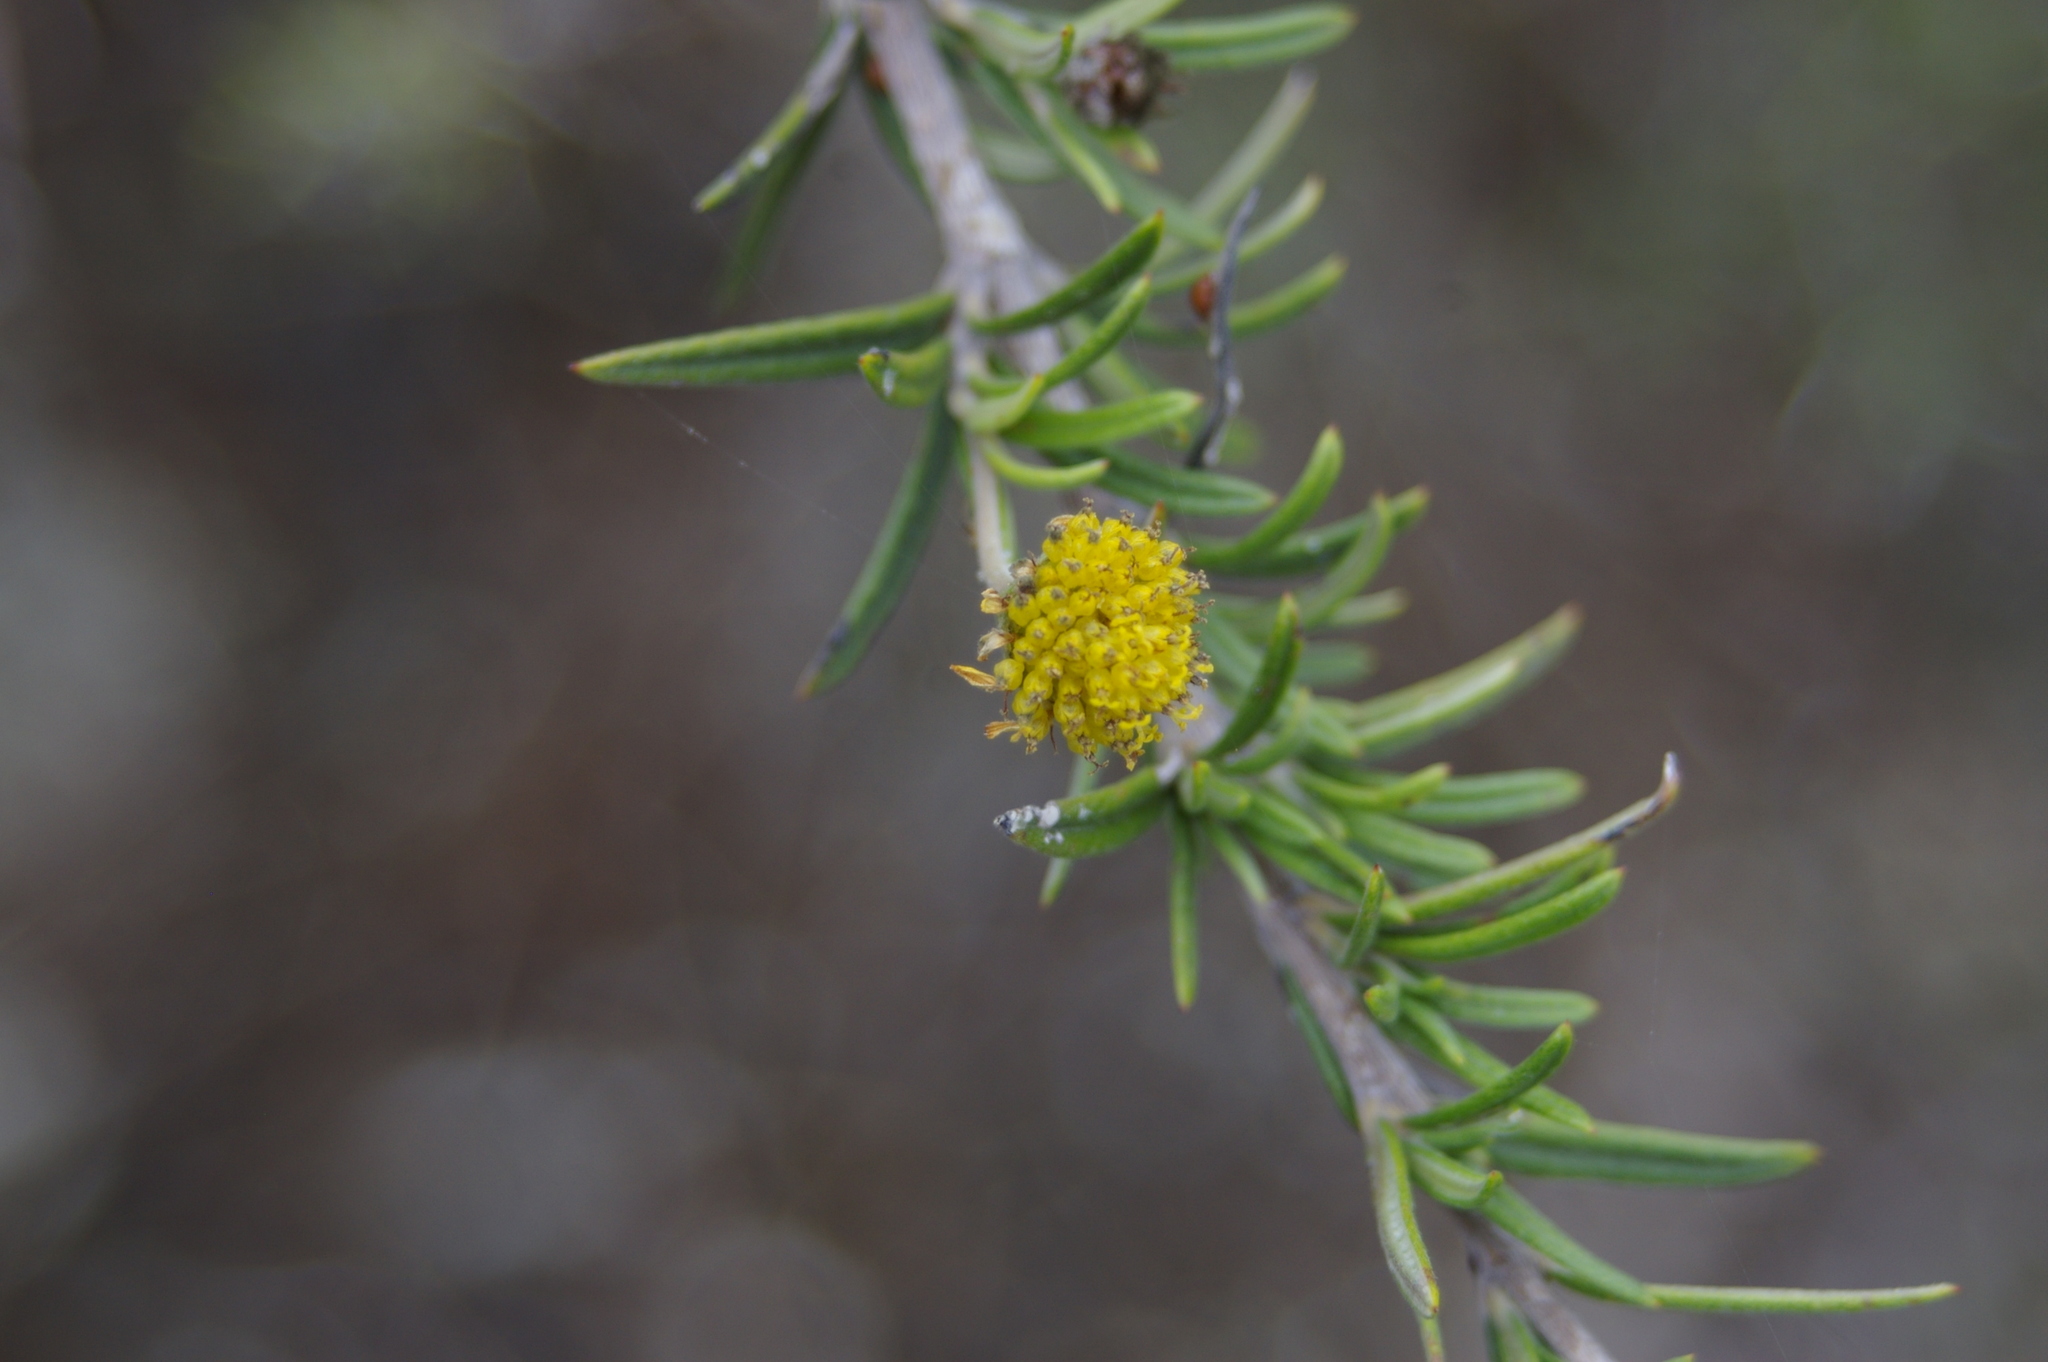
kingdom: Plantae
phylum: Tracheophyta
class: Magnoliopsida
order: Asterales
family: Asteraceae
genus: Trigonopterum
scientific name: Trigonopterum laricifolium
